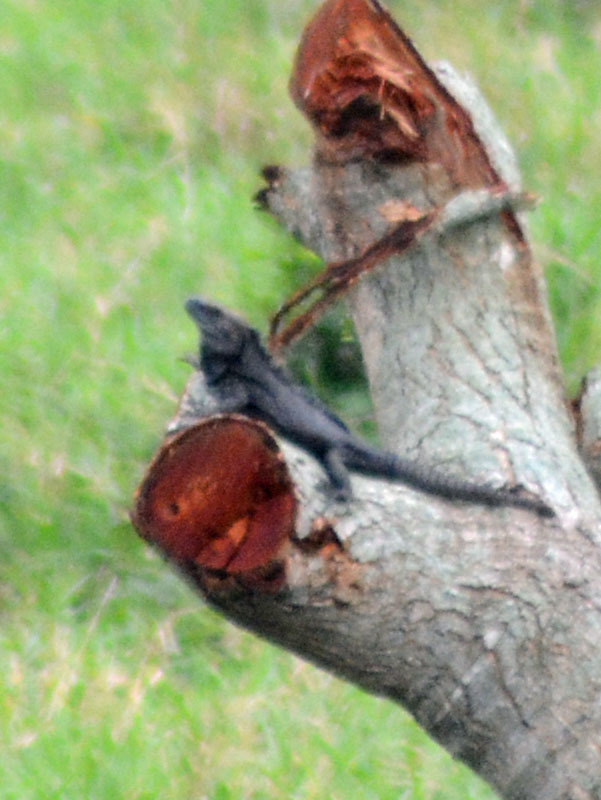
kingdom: Animalia
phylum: Chordata
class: Squamata
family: Iguanidae
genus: Ctenosaura
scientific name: Ctenosaura acanthura
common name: Northeastern spinytail iguana
